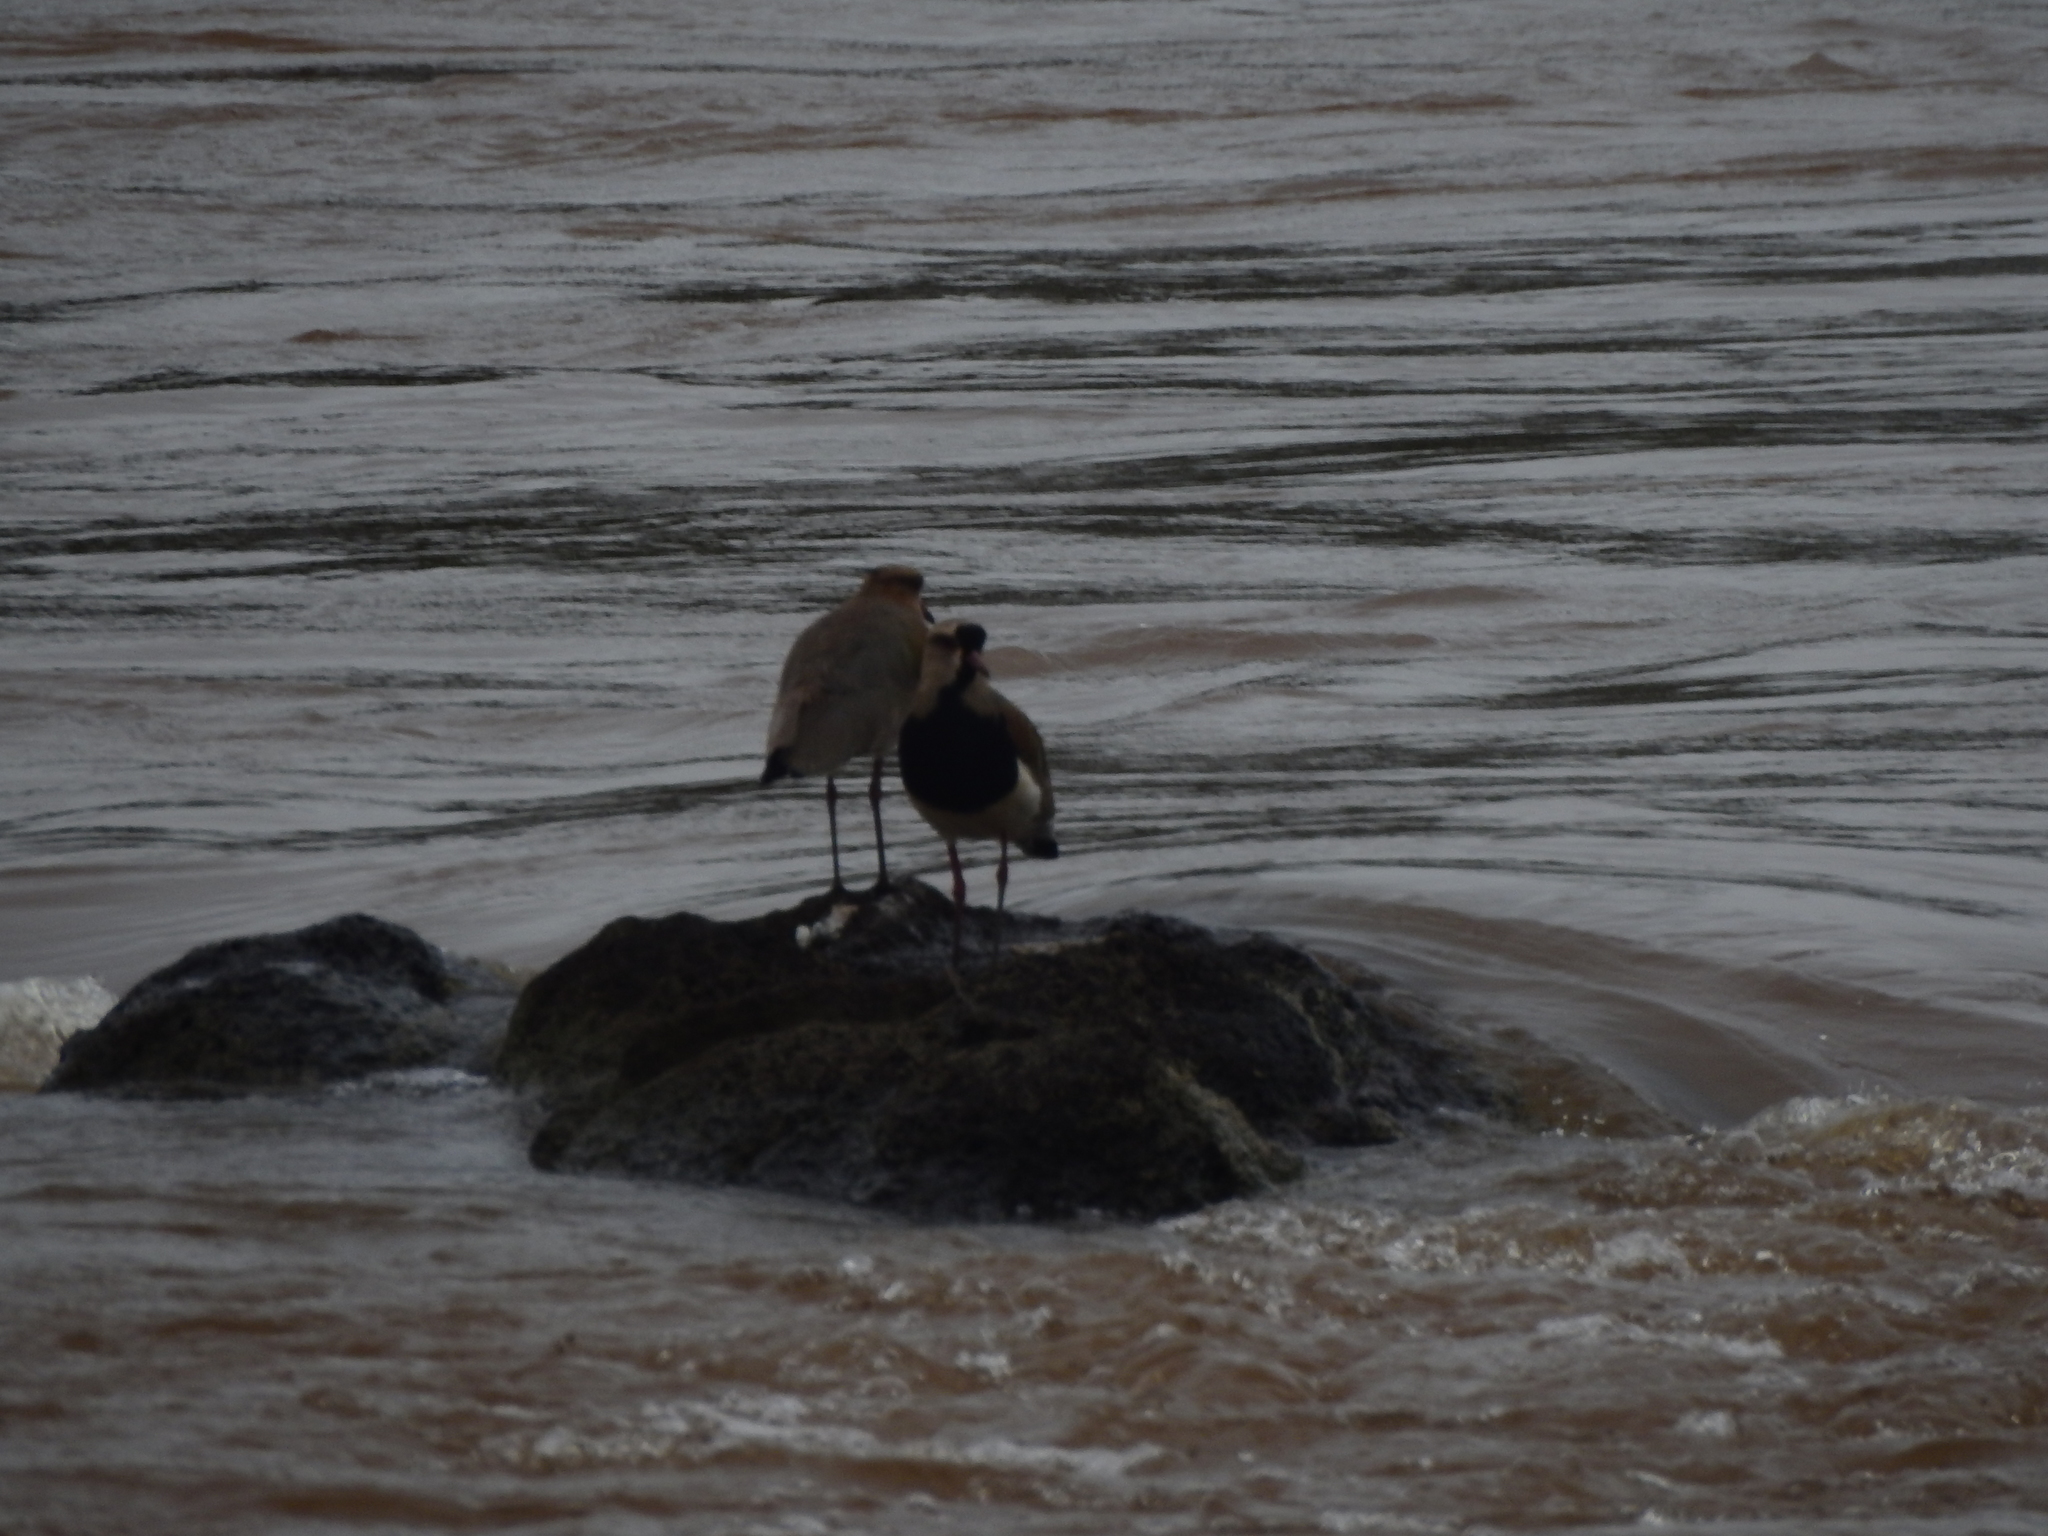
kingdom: Animalia
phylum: Chordata
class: Aves
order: Charadriiformes
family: Charadriidae
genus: Vanellus
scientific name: Vanellus chilensis
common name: Southern lapwing
